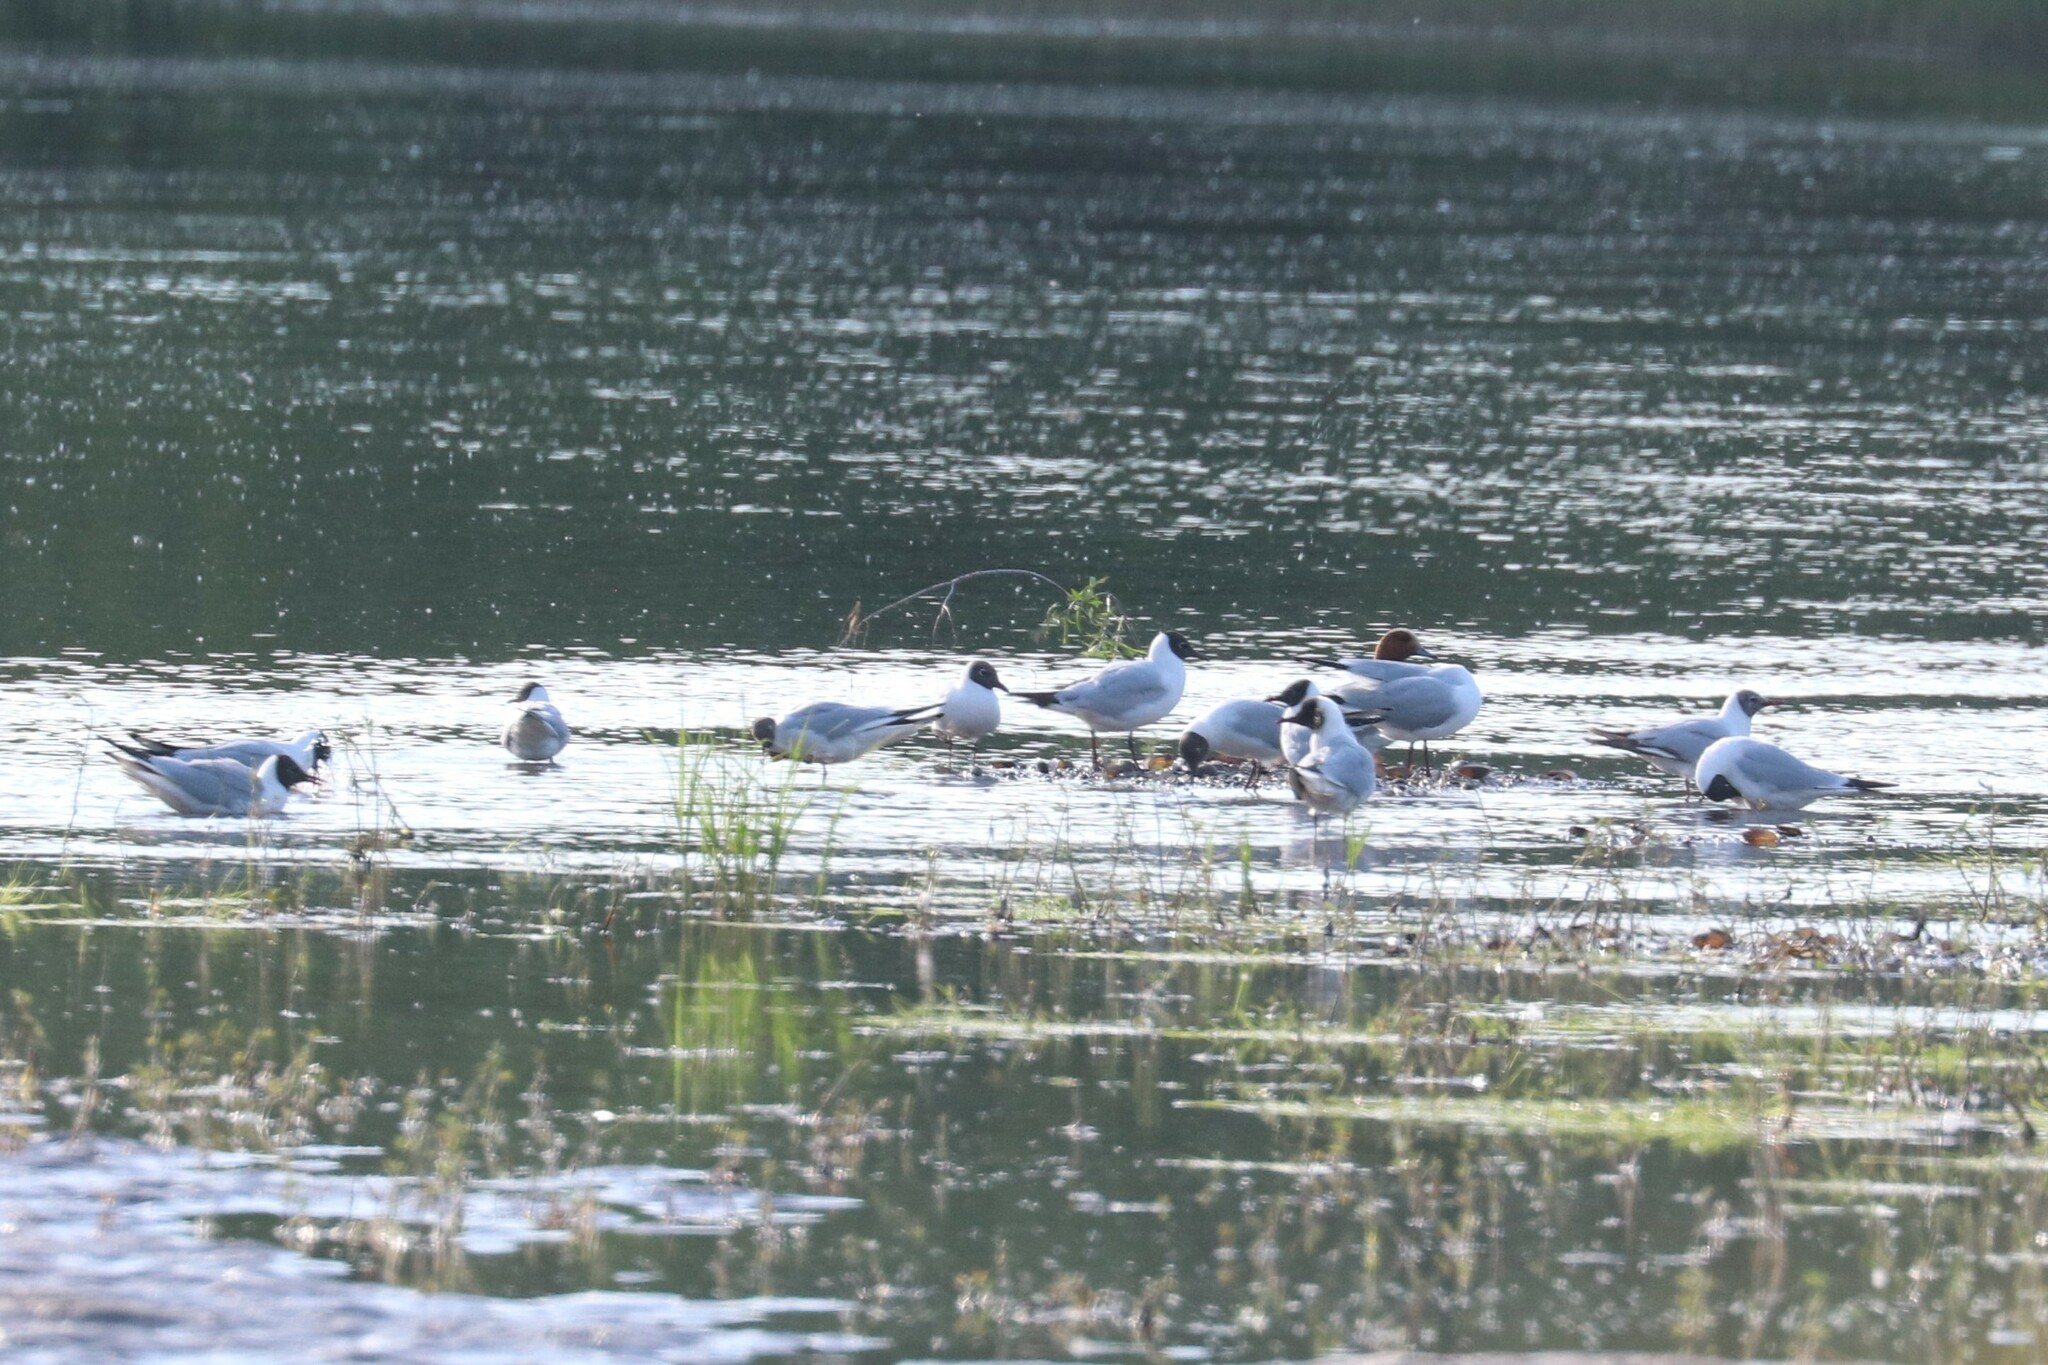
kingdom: Animalia
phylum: Chordata
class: Aves
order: Charadriiformes
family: Laridae
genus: Chroicocephalus
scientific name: Chroicocephalus ridibundus
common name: Black-headed gull
